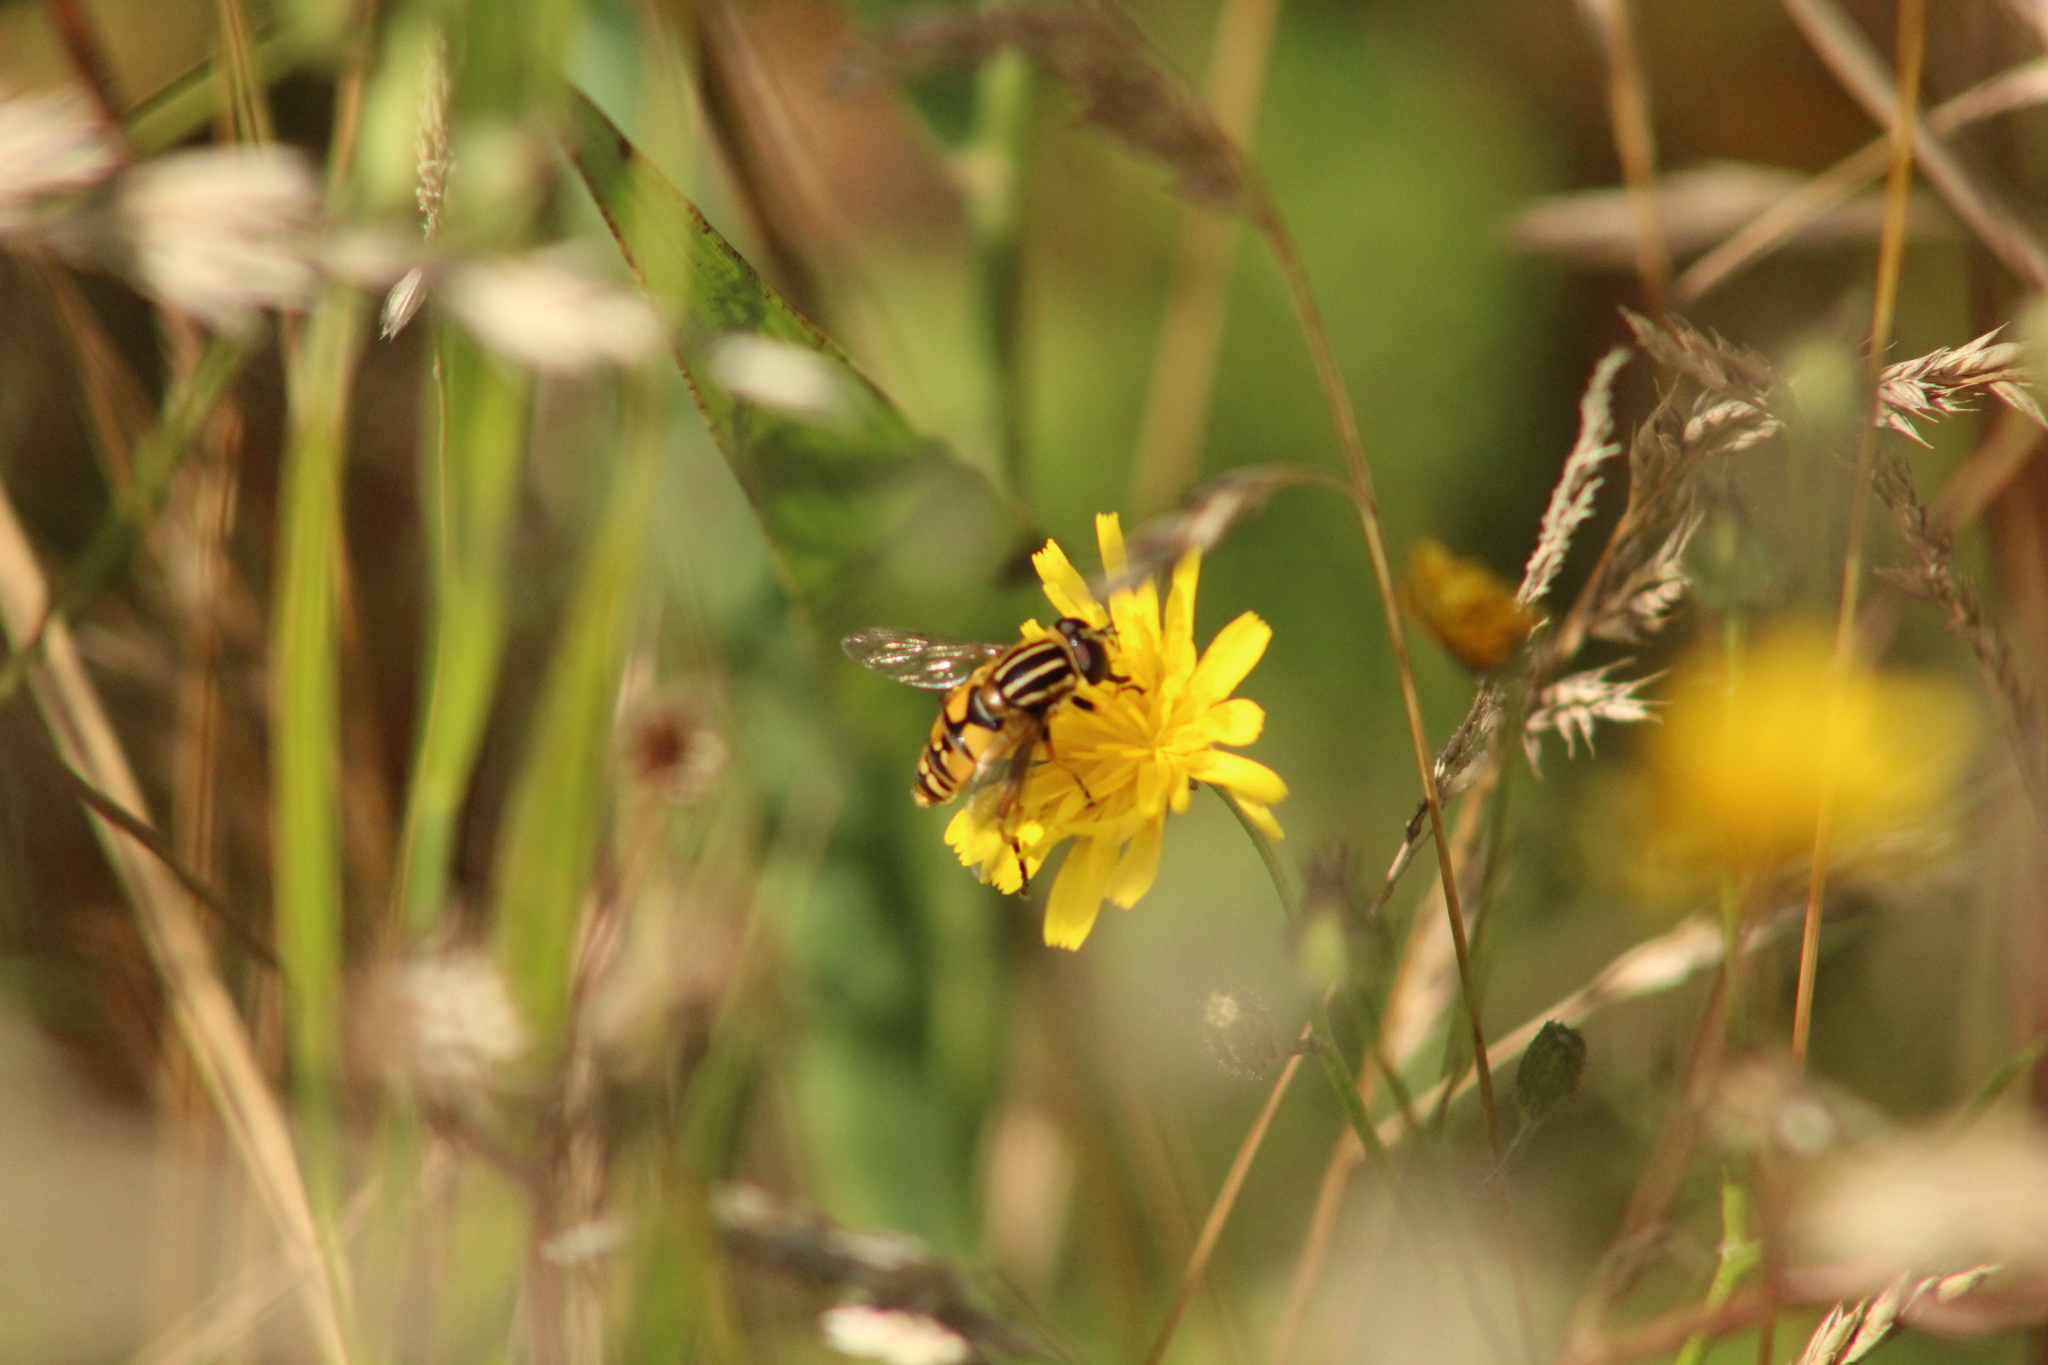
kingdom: Animalia
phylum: Arthropoda
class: Insecta
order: Diptera
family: Syrphidae
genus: Helophilus
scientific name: Helophilus pendulus
